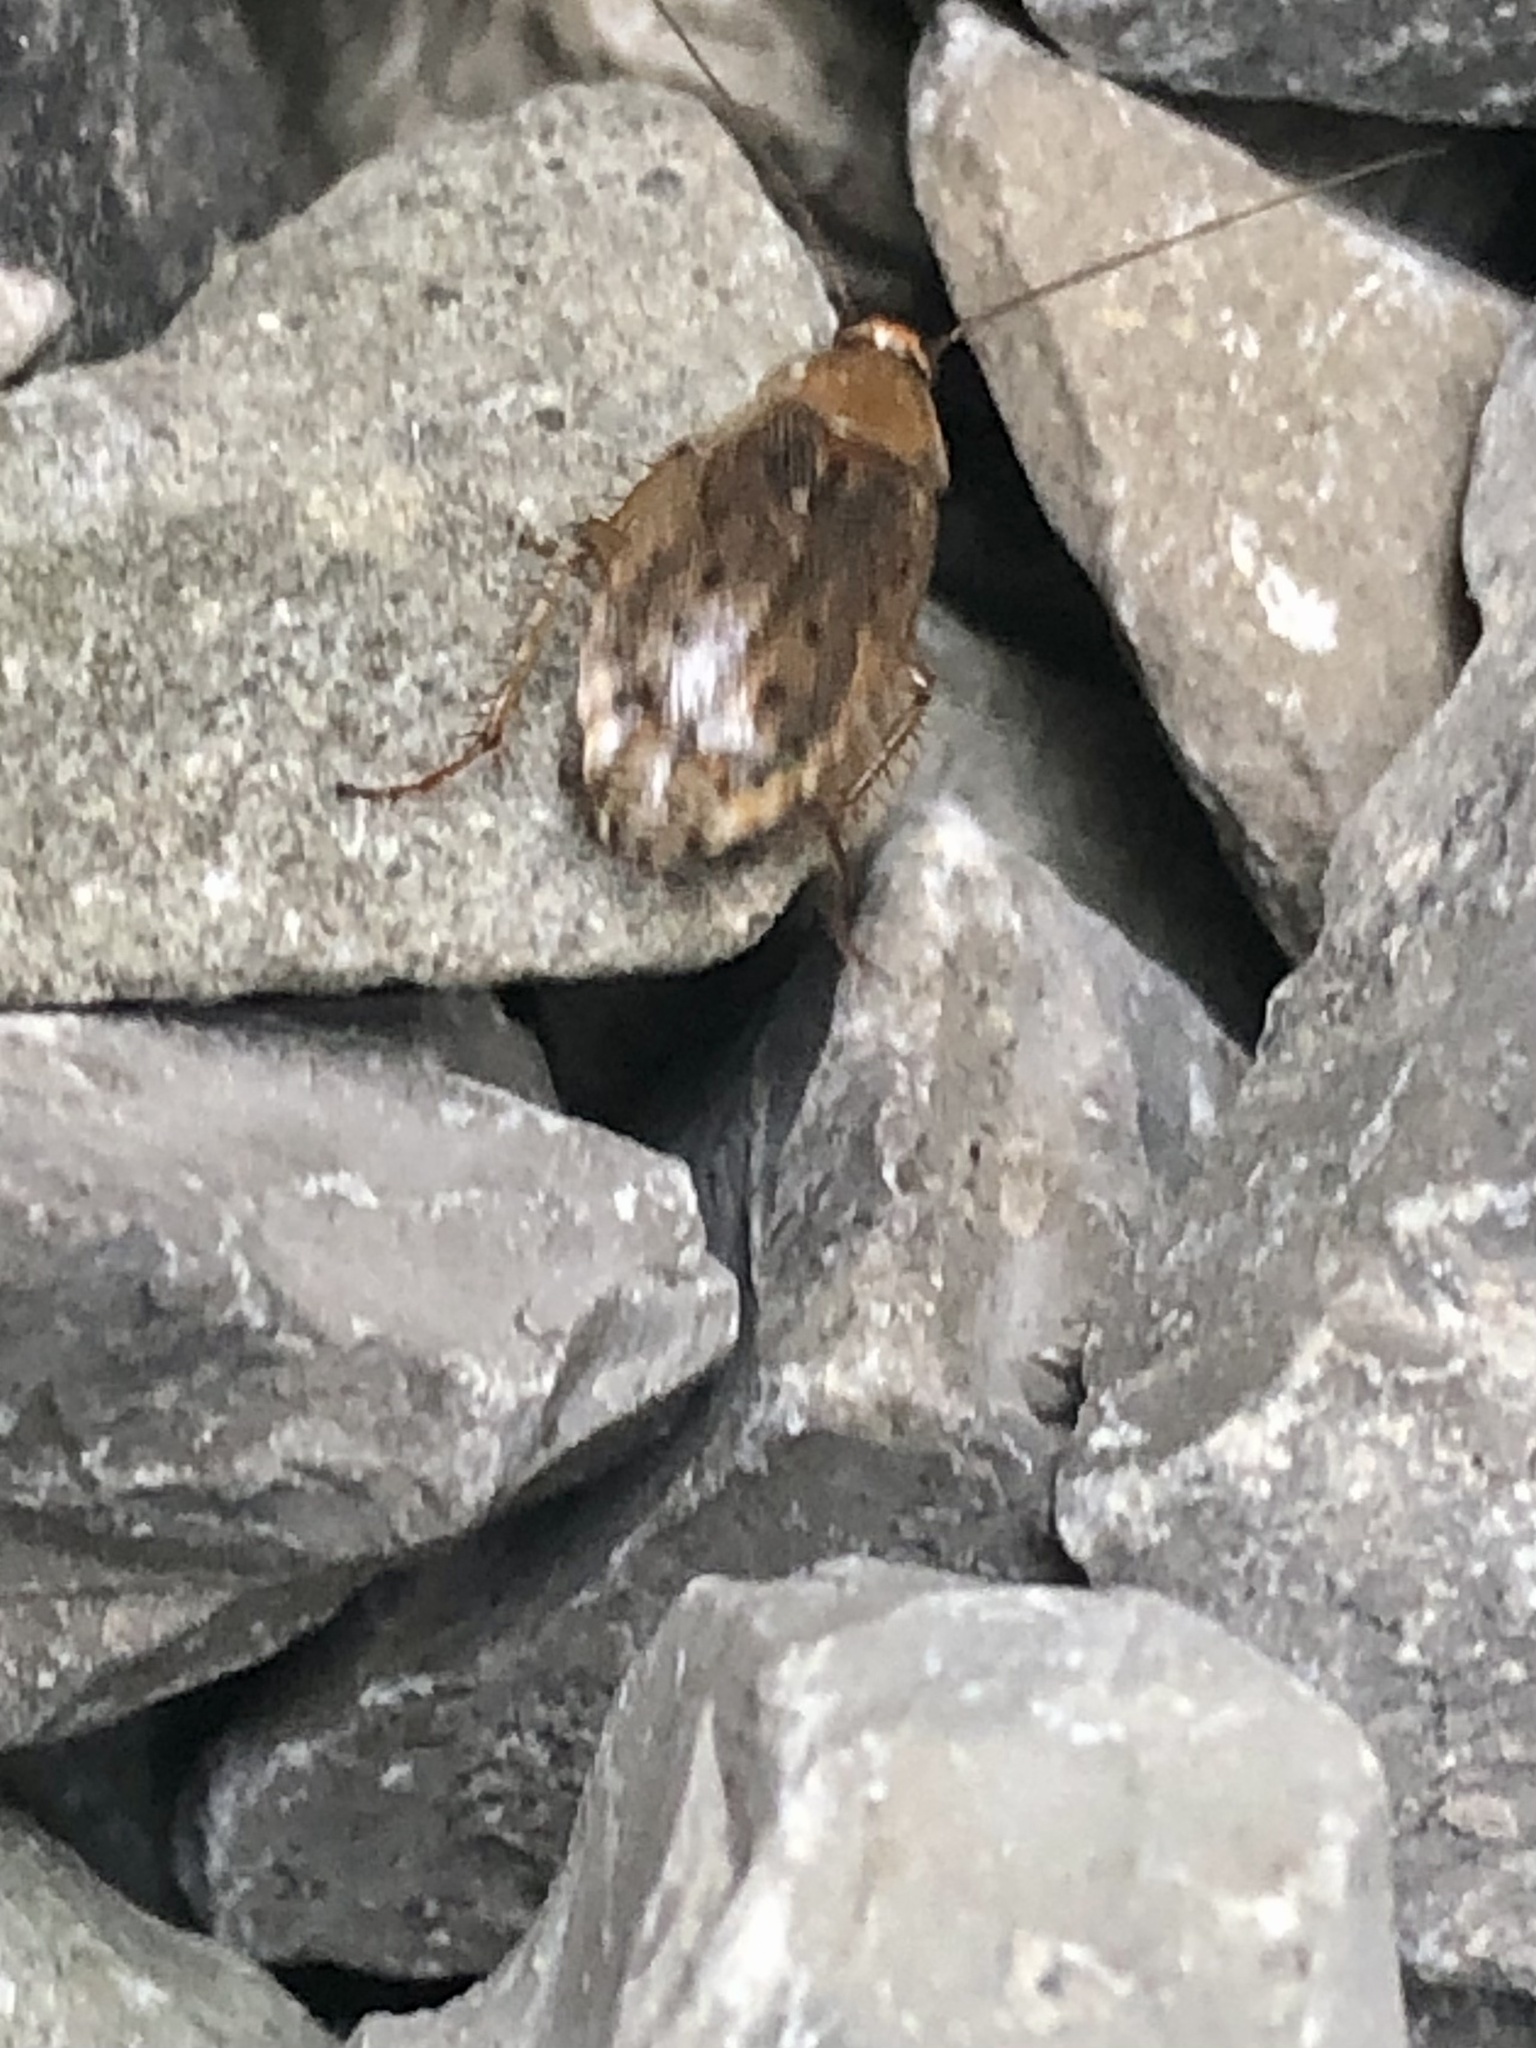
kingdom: Animalia
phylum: Arthropoda
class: Insecta
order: Blattodea
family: Ectobiidae
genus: Ectobius
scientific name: Ectobius lapponicus
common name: Dusky cockroach
